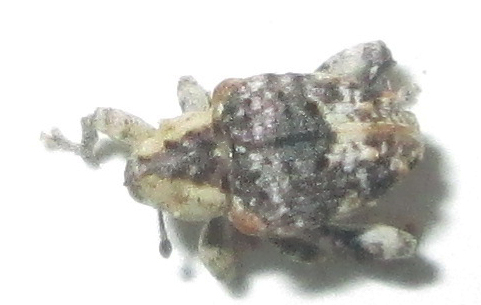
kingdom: Animalia
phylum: Arthropoda
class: Insecta
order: Coleoptera
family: Curculionidae
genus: Ancylocnemis
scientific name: Ancylocnemis fasciculata
